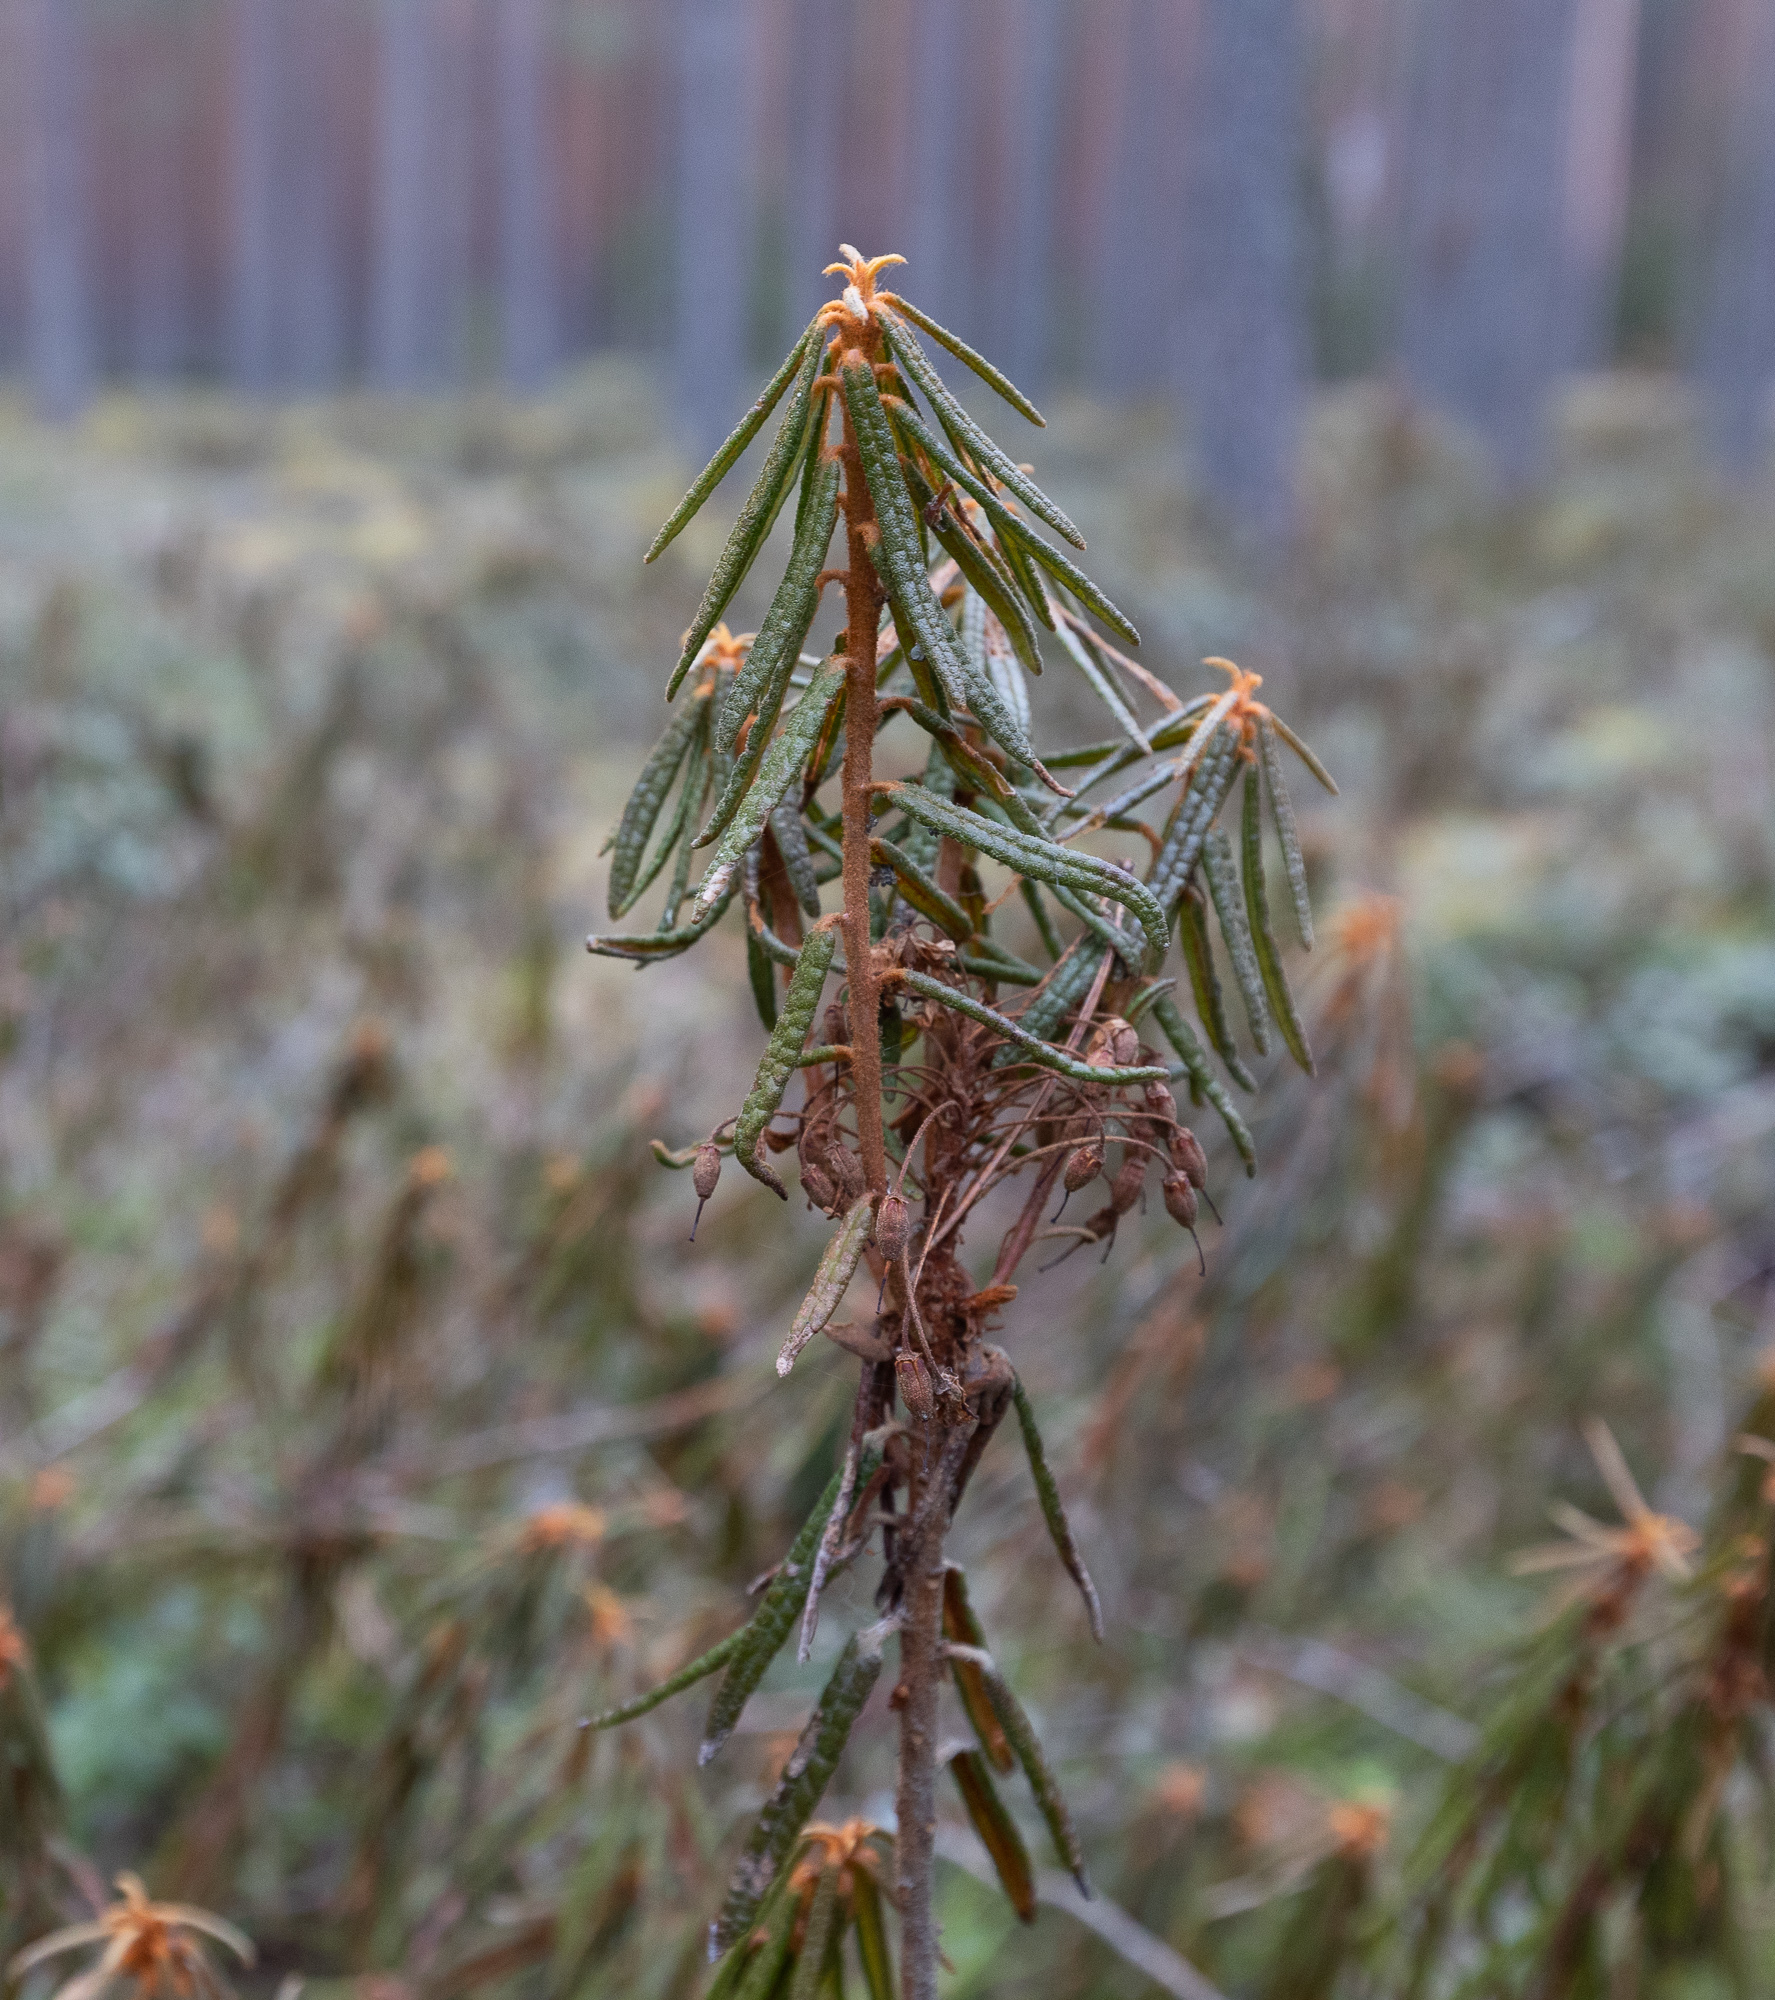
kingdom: Plantae
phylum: Tracheophyta
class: Magnoliopsida
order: Ericales
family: Ericaceae
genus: Rhododendron
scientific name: Rhododendron tomentosum
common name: Marsh labrador tea
